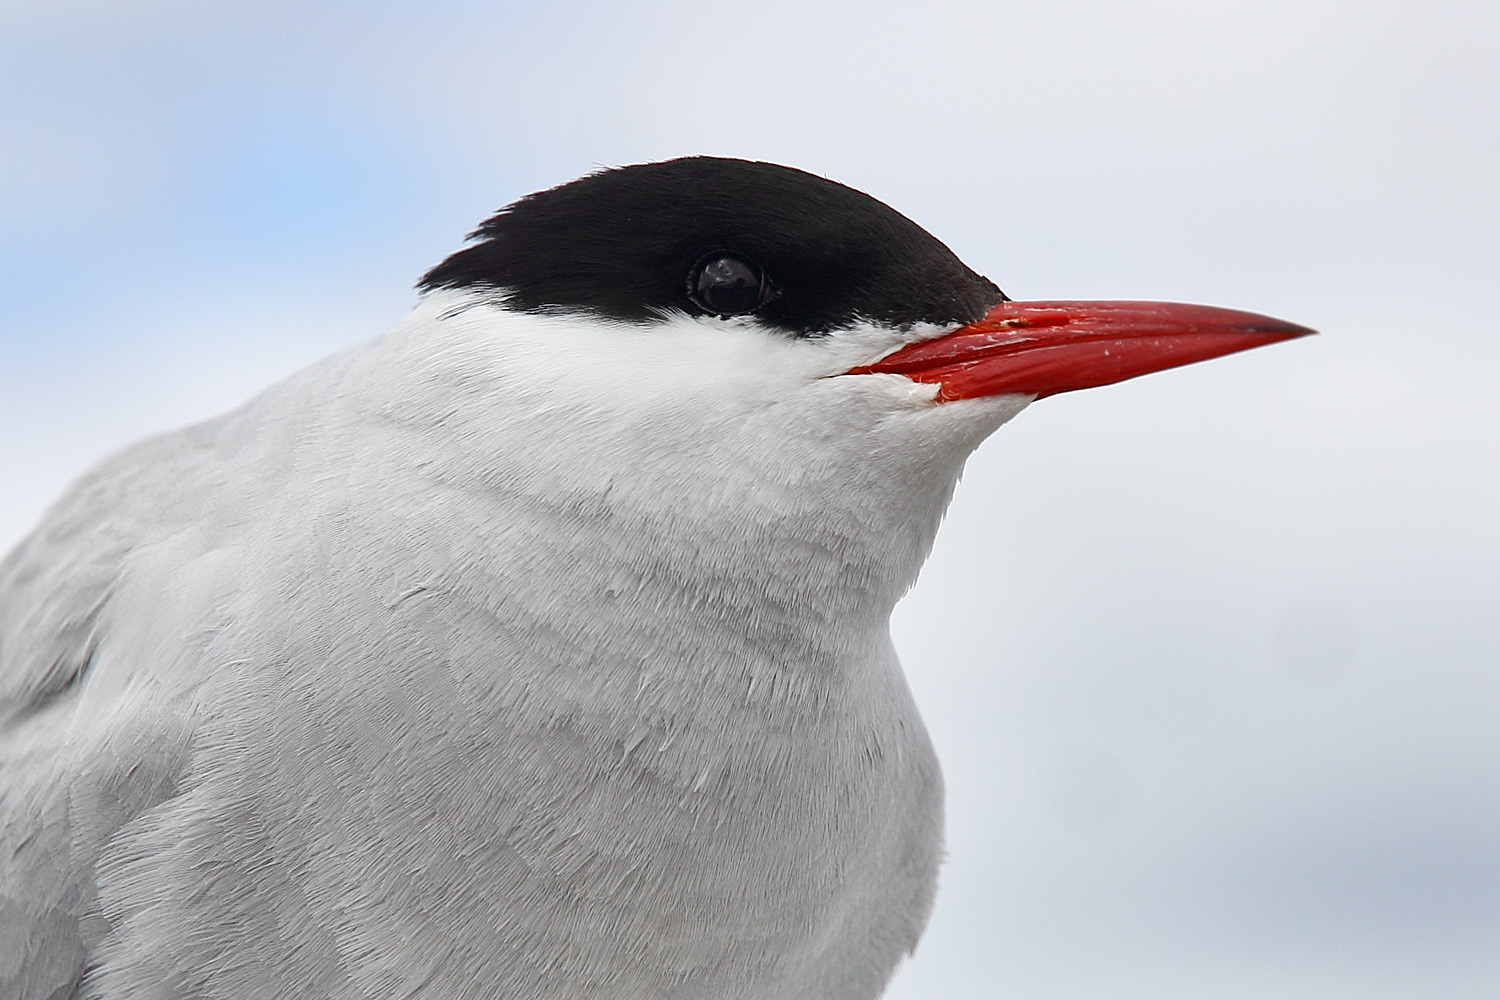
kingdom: Animalia
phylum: Chordata
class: Aves
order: Charadriiformes
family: Laridae
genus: Sterna
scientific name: Sterna paradisaea
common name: Arctic tern
